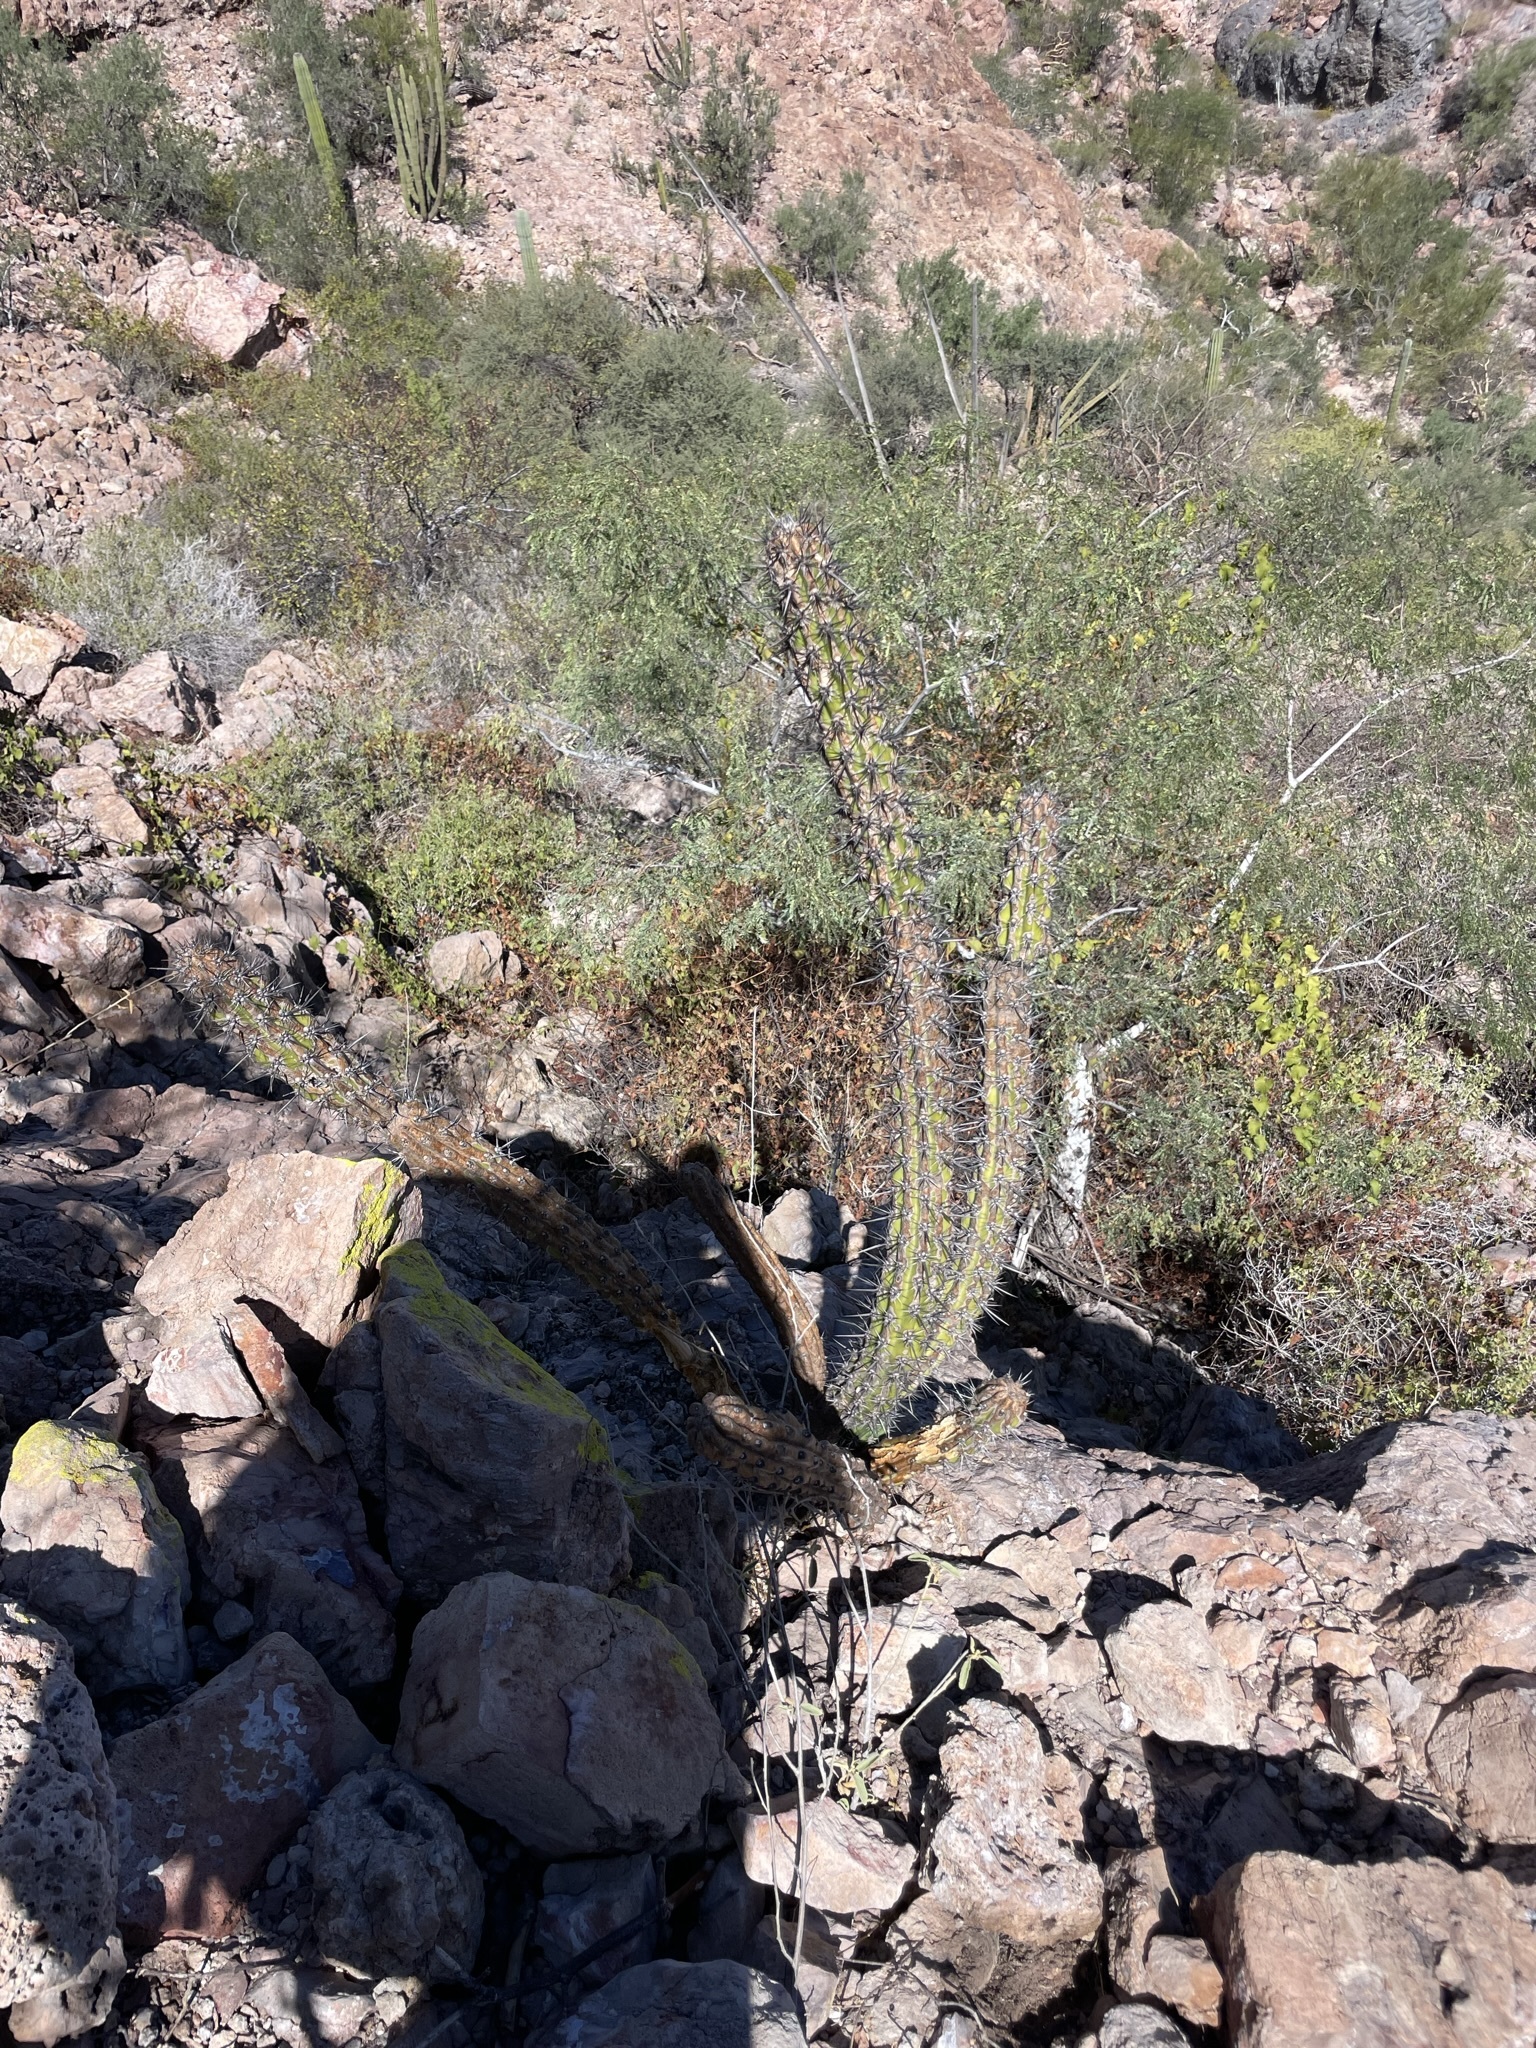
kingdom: Plantae
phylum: Tracheophyta
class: Magnoliopsida
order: Caryophyllales
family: Cactaceae
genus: Stenocereus
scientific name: Stenocereus gummosus
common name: Dagger cactus
